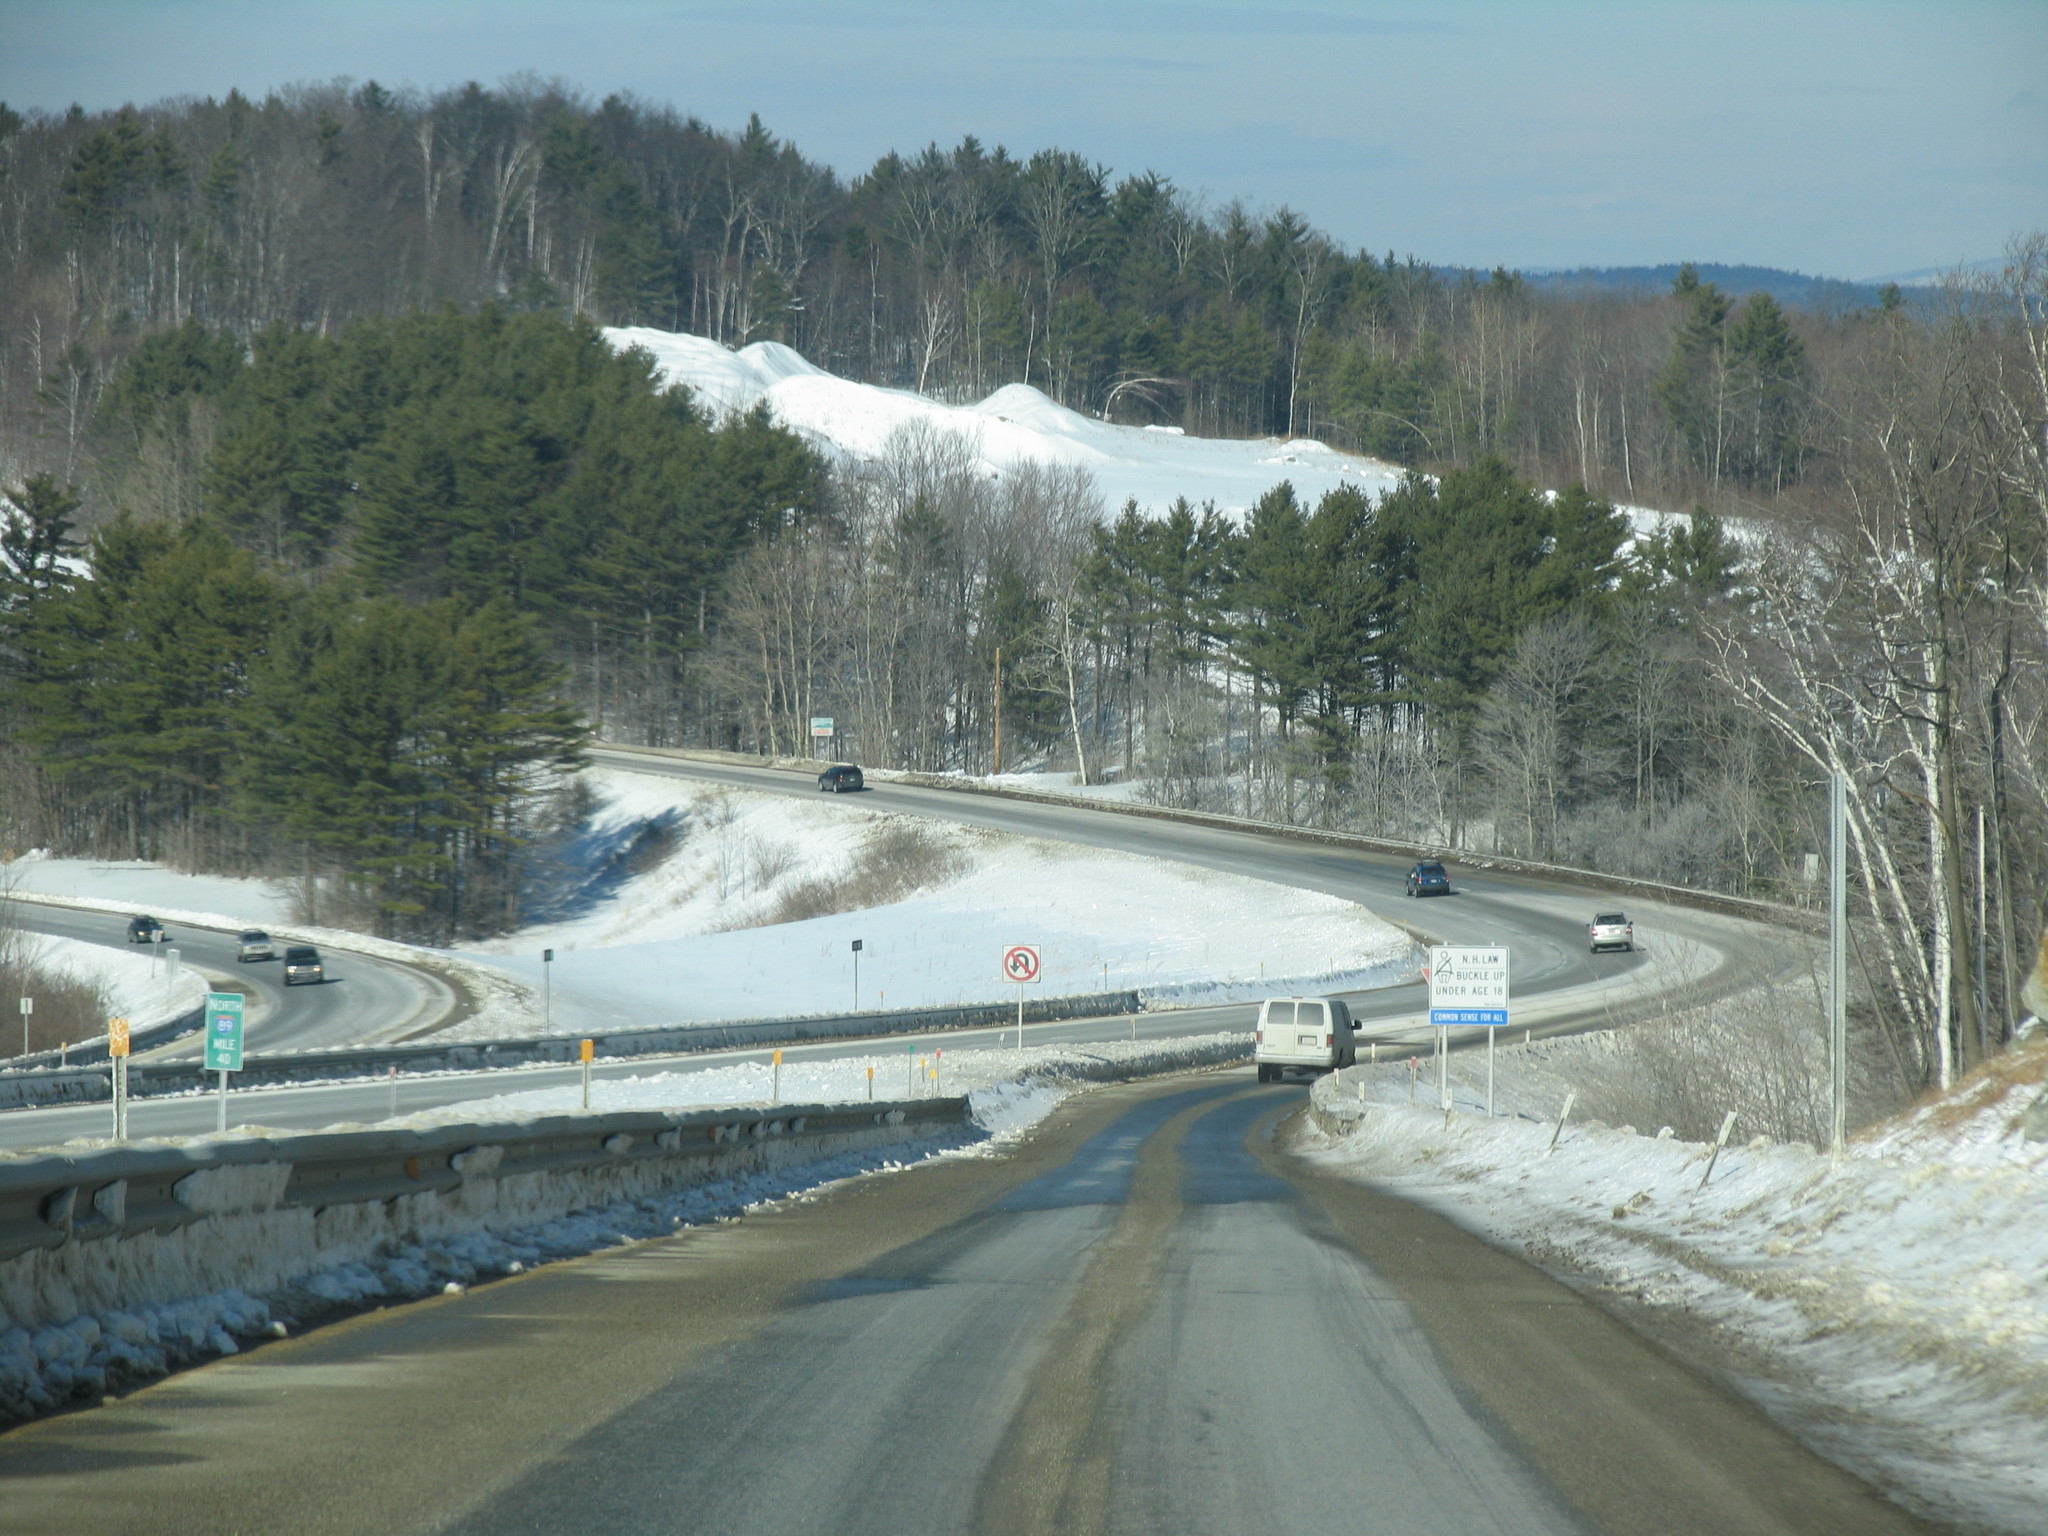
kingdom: Plantae
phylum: Tracheophyta
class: Pinopsida
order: Pinales
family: Pinaceae
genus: Pinus
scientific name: Pinus strobus
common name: Weymouth pine
